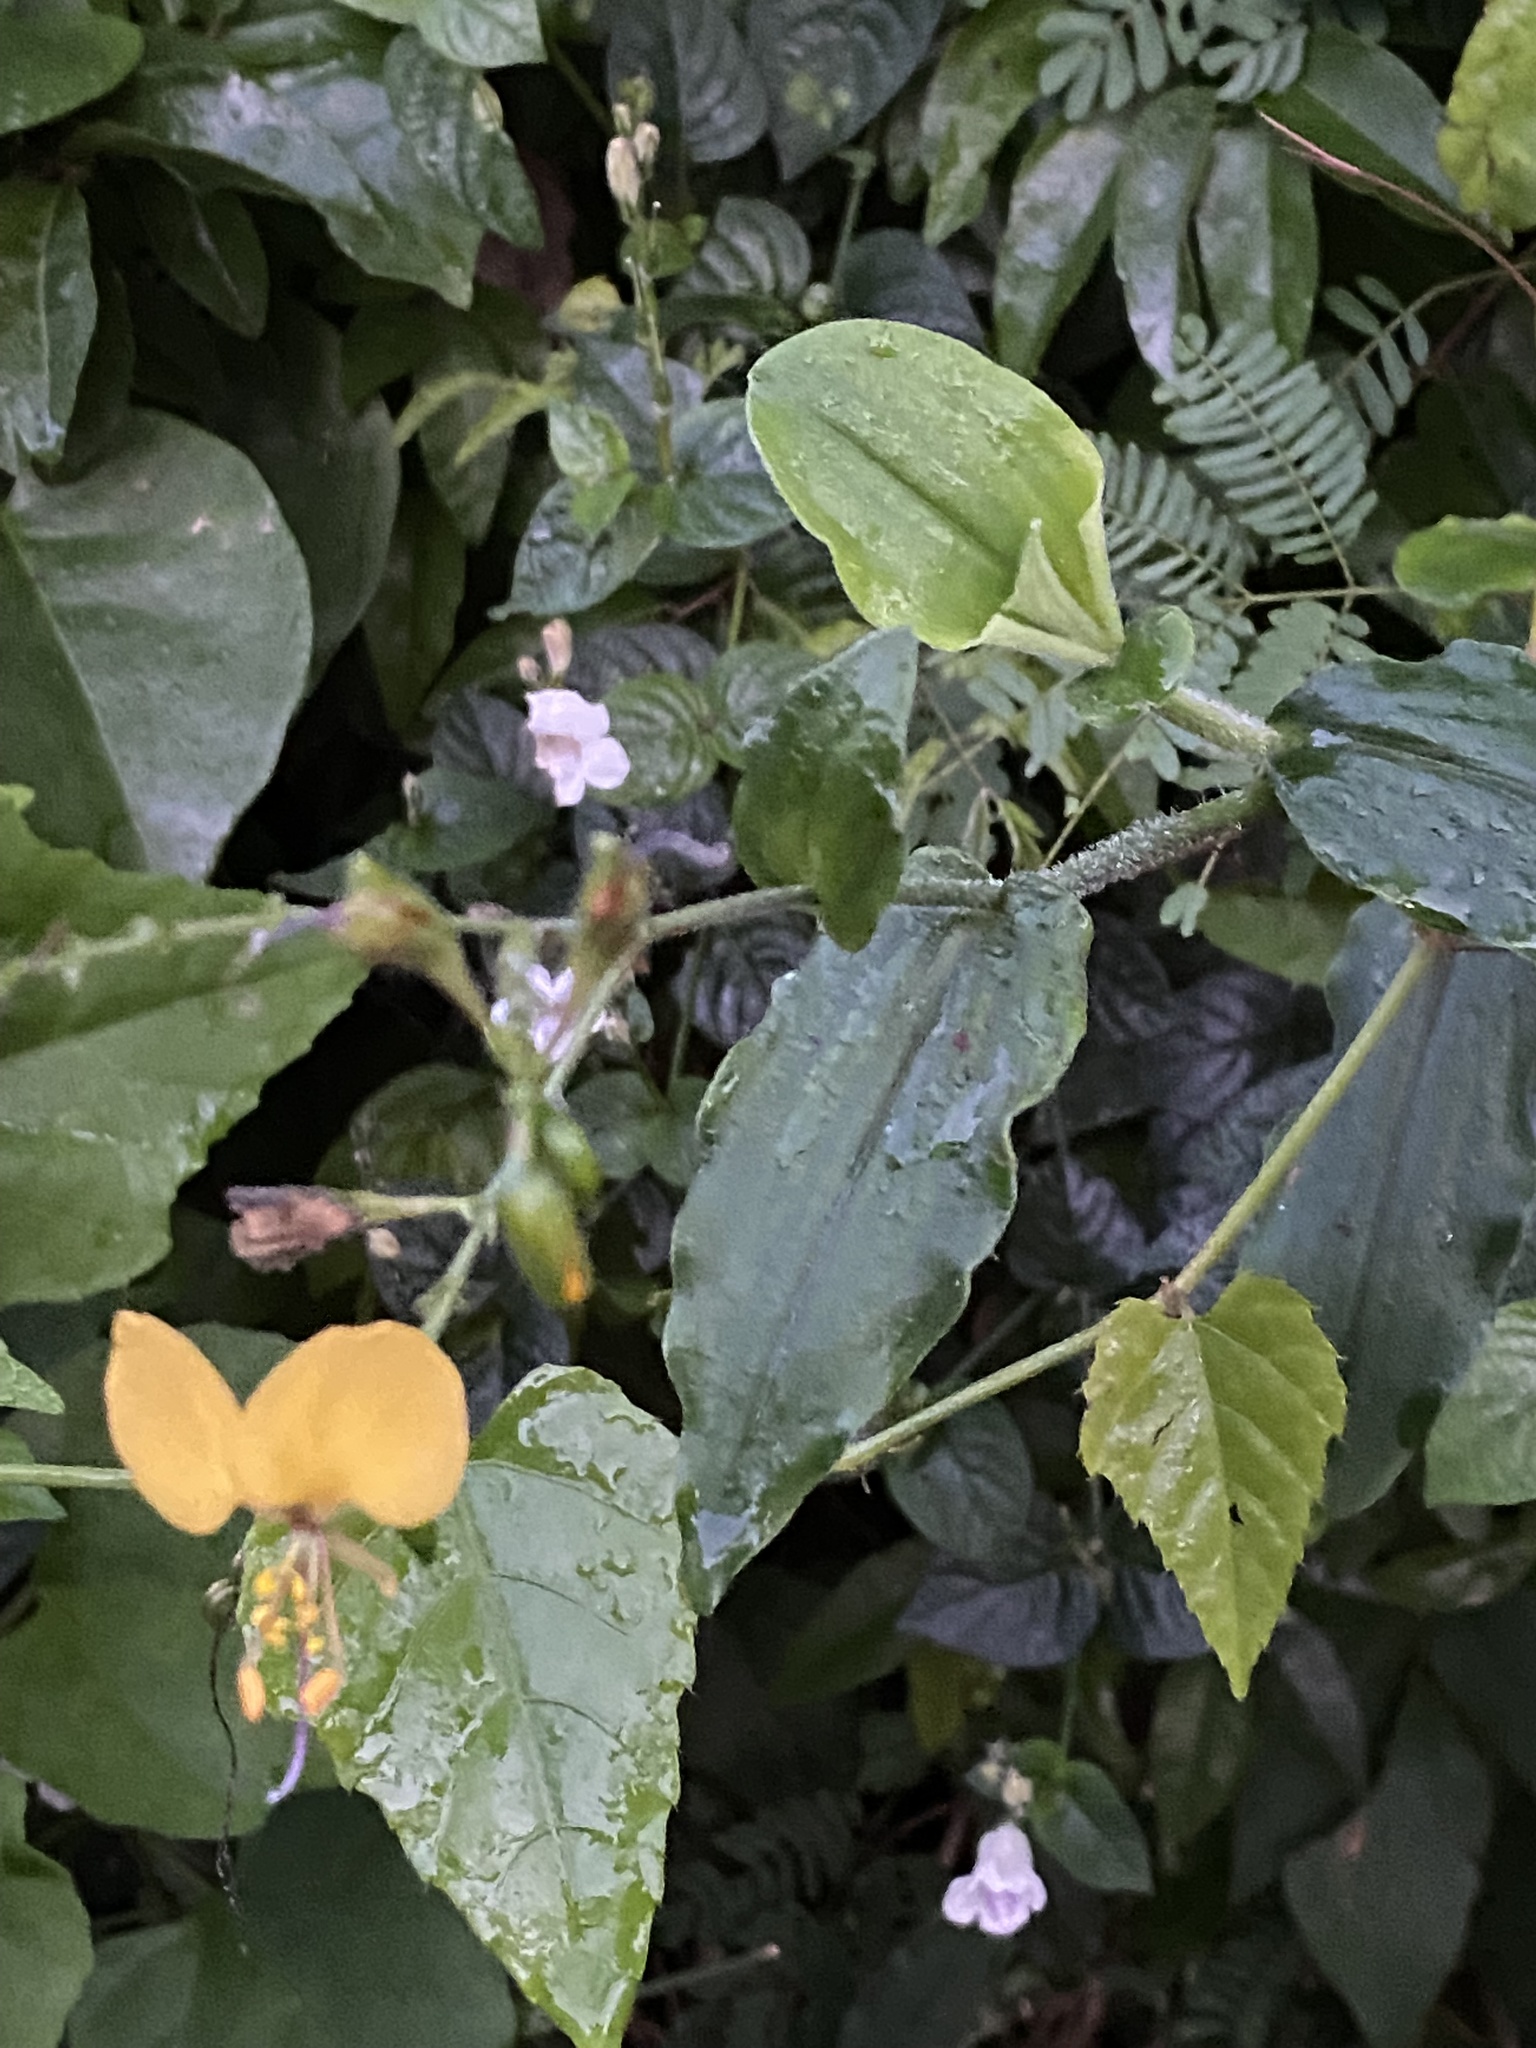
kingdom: Plantae
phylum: Tracheophyta
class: Liliopsida
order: Commelinales
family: Commelinaceae
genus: Aneilema
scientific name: Aneilema aequinoctiale
